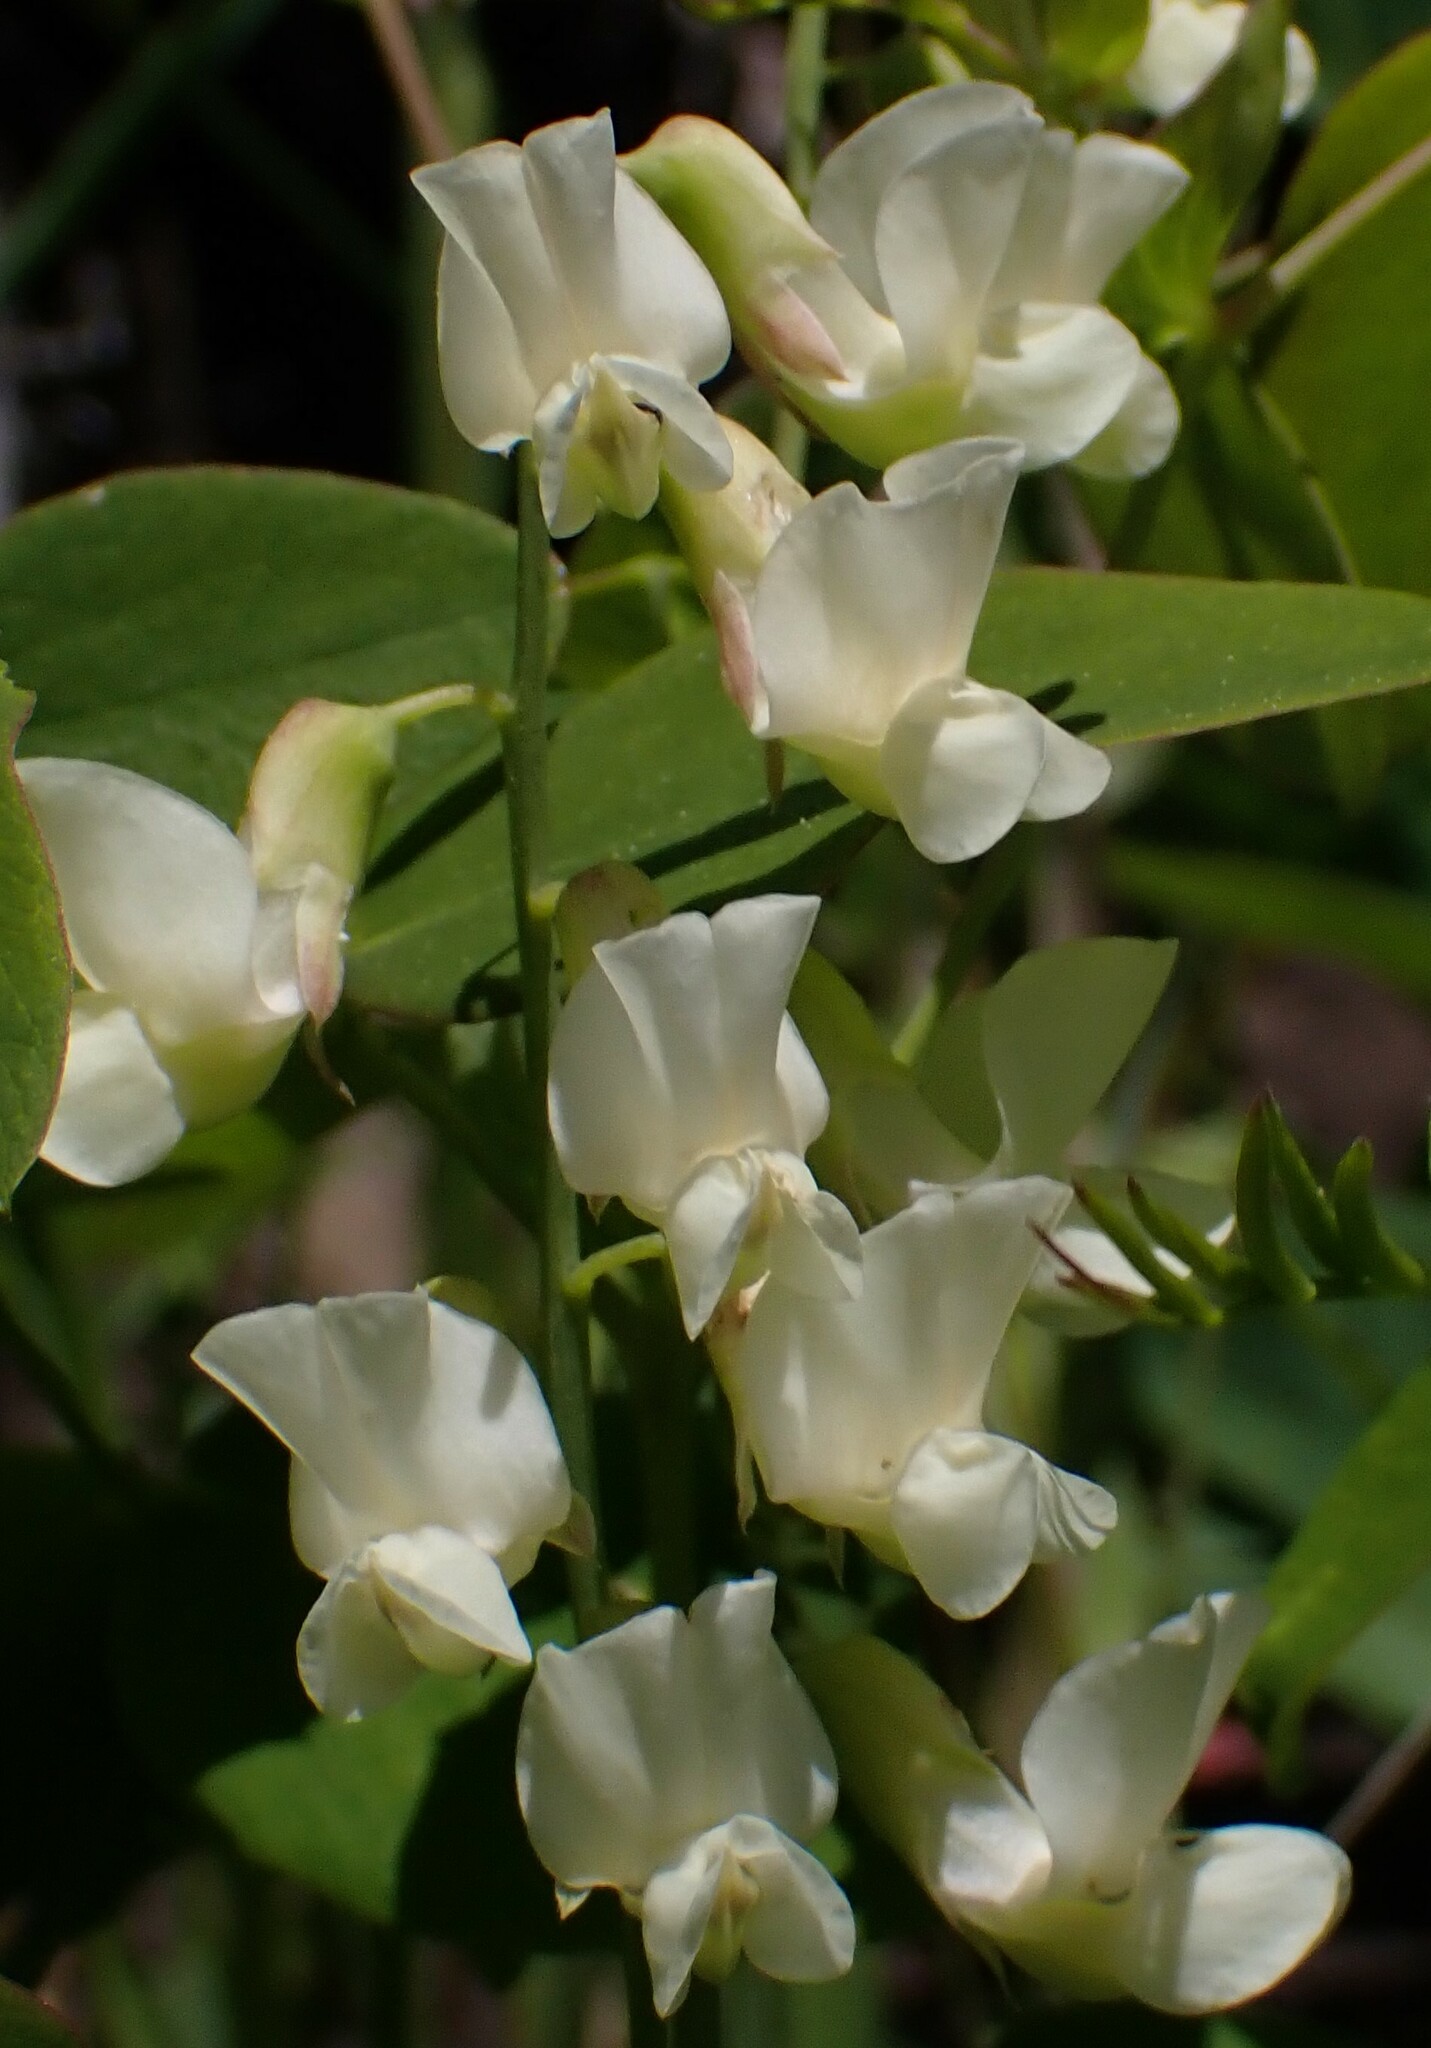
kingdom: Plantae
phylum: Tracheophyta
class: Magnoliopsida
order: Fabales
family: Fabaceae
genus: Lathyrus
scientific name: Lathyrus ochroleucus
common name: Pale vetchling
